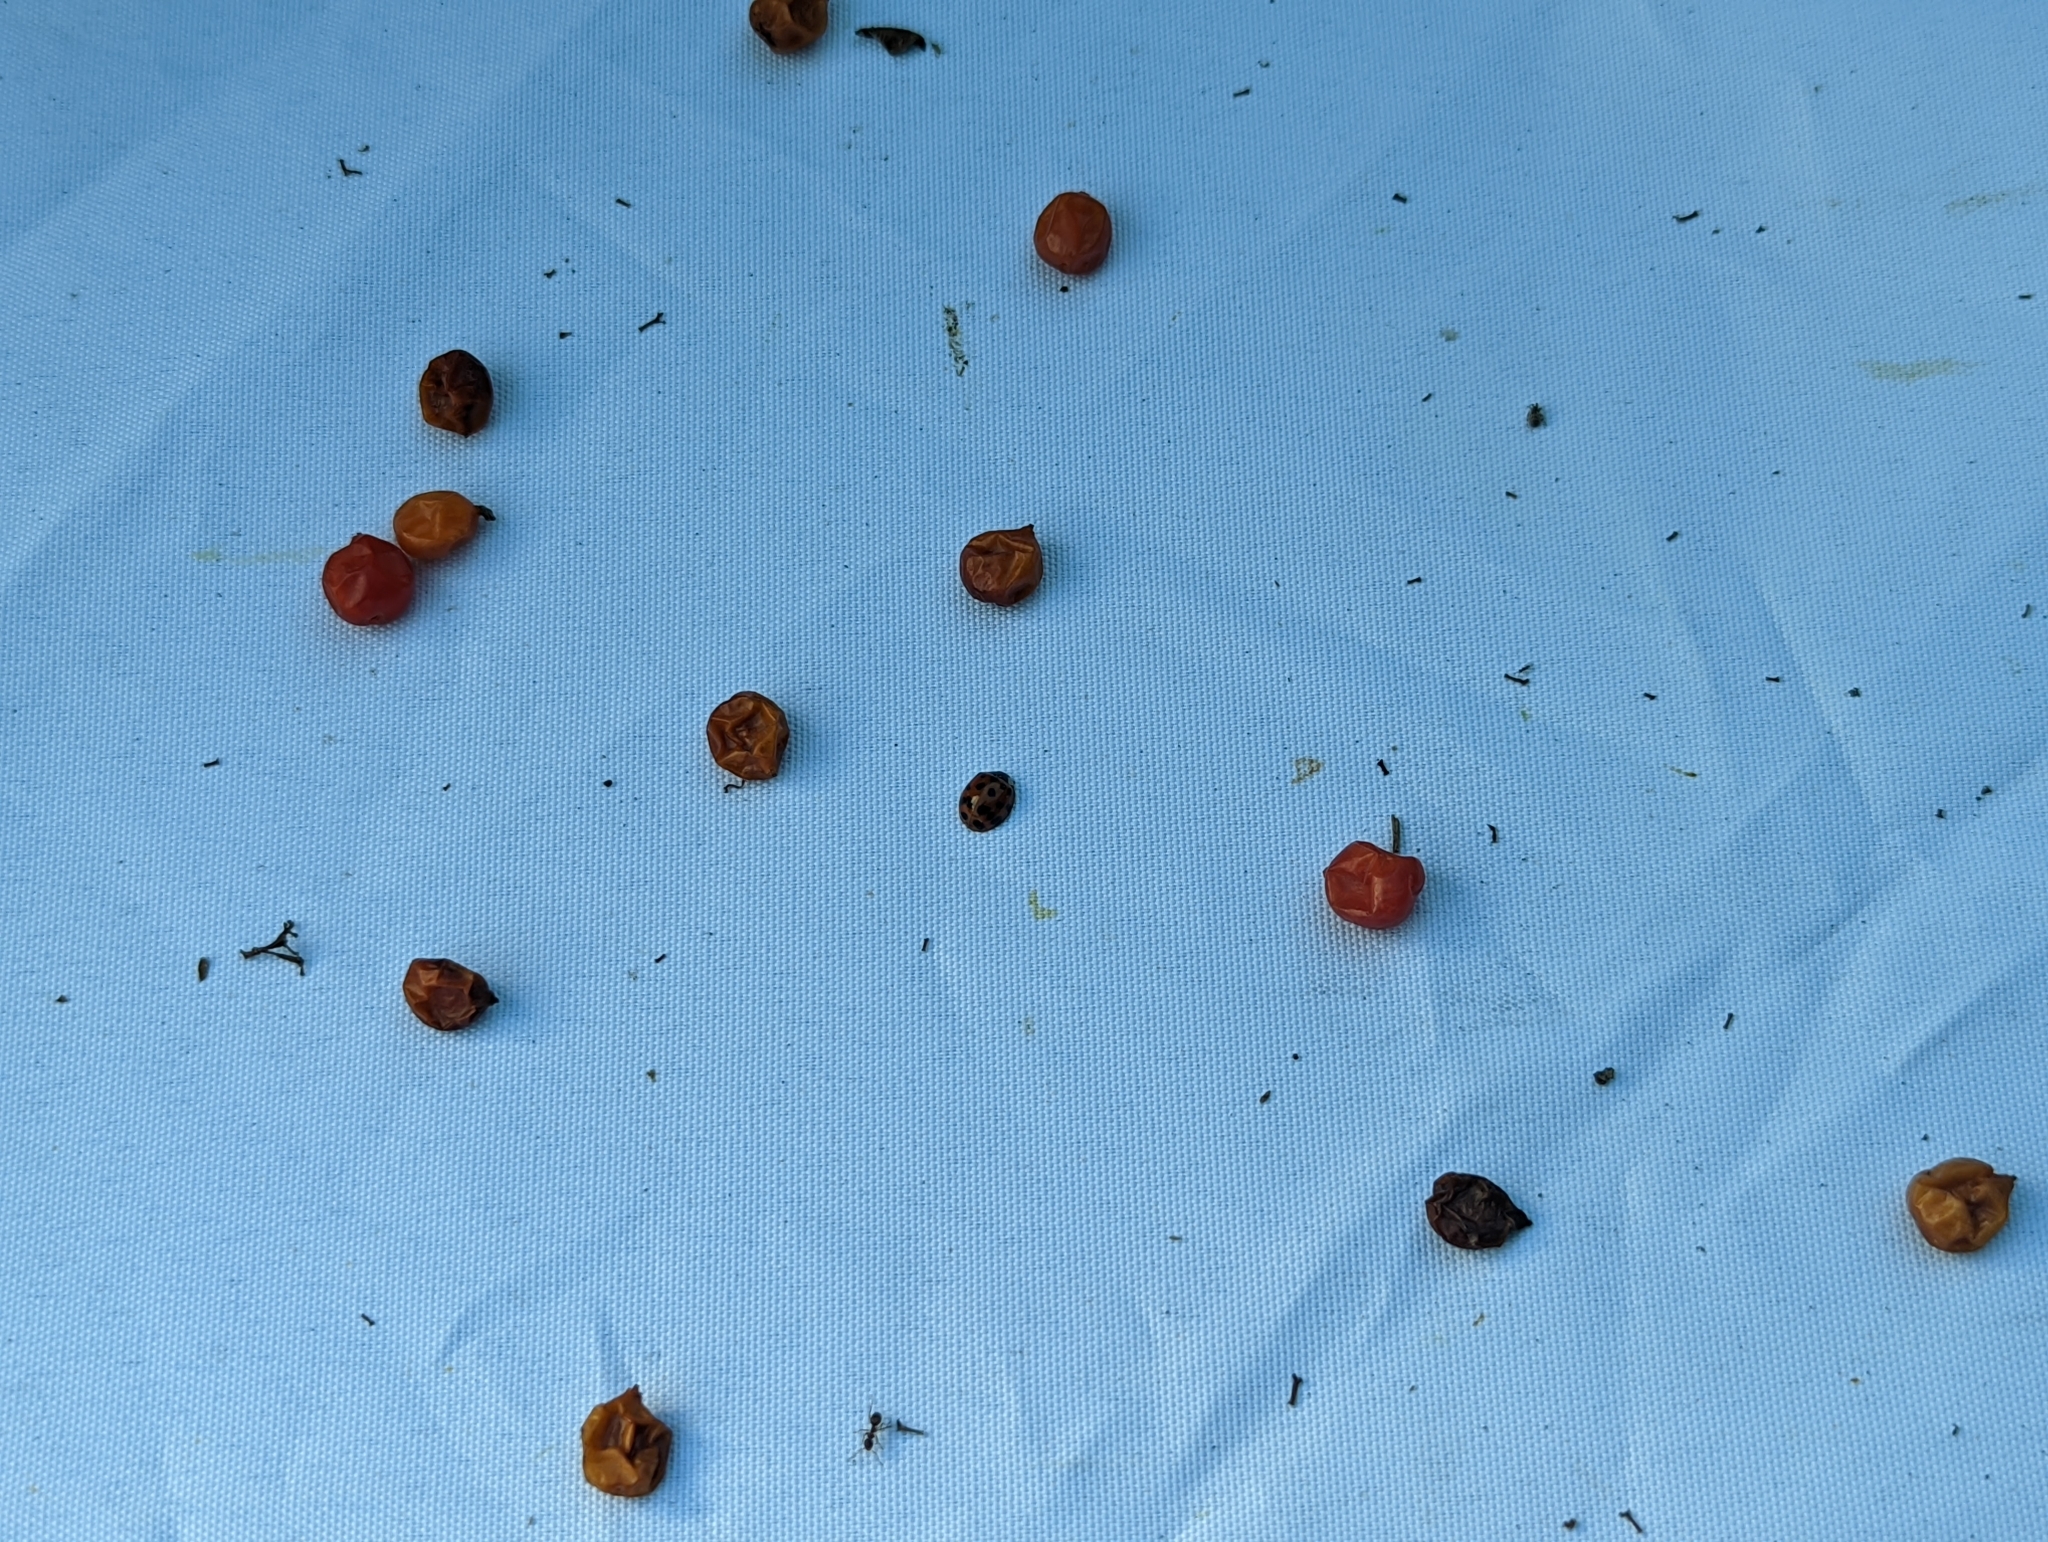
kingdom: Animalia
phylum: Arthropoda
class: Insecta
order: Coleoptera
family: Coccinellidae
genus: Harmonia
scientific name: Harmonia axyridis
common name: Harlequin ladybird
